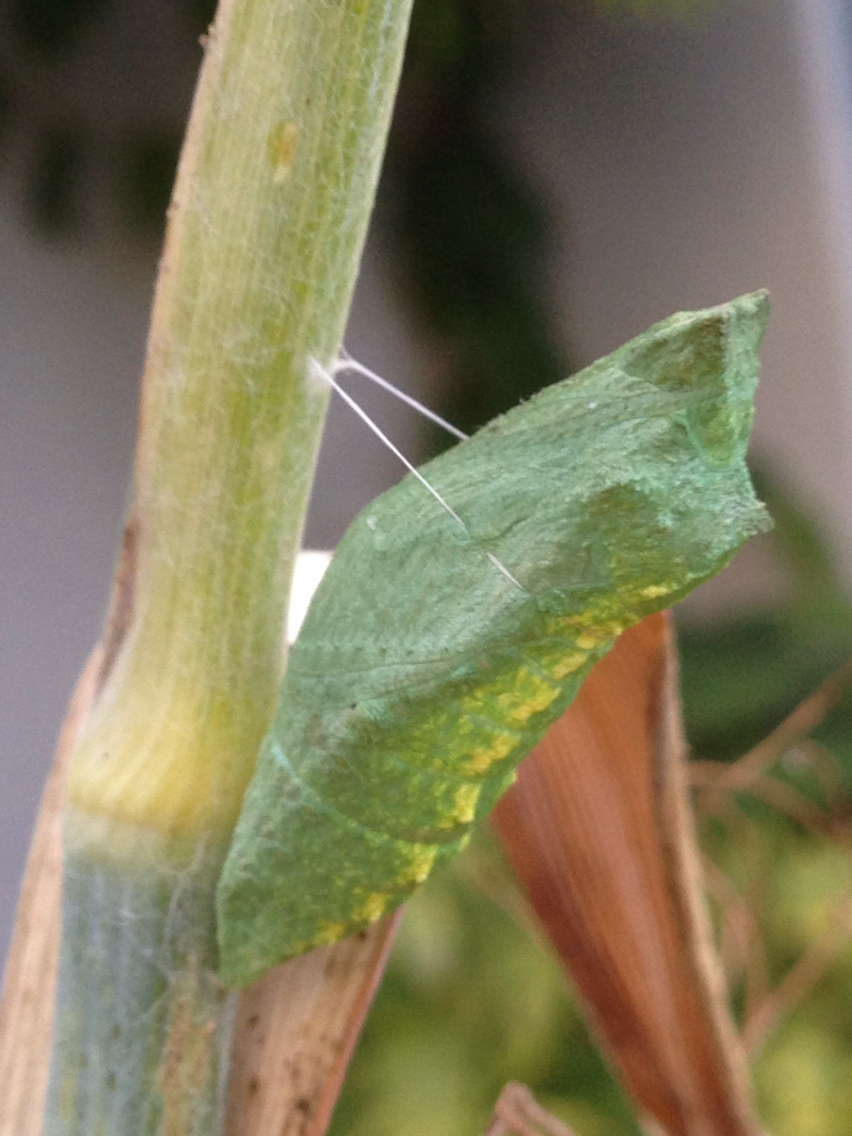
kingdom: Animalia
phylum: Arthropoda
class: Insecta
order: Lepidoptera
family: Papilionidae
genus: Papilio
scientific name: Papilio zelicaon
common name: Anise swallowtail
